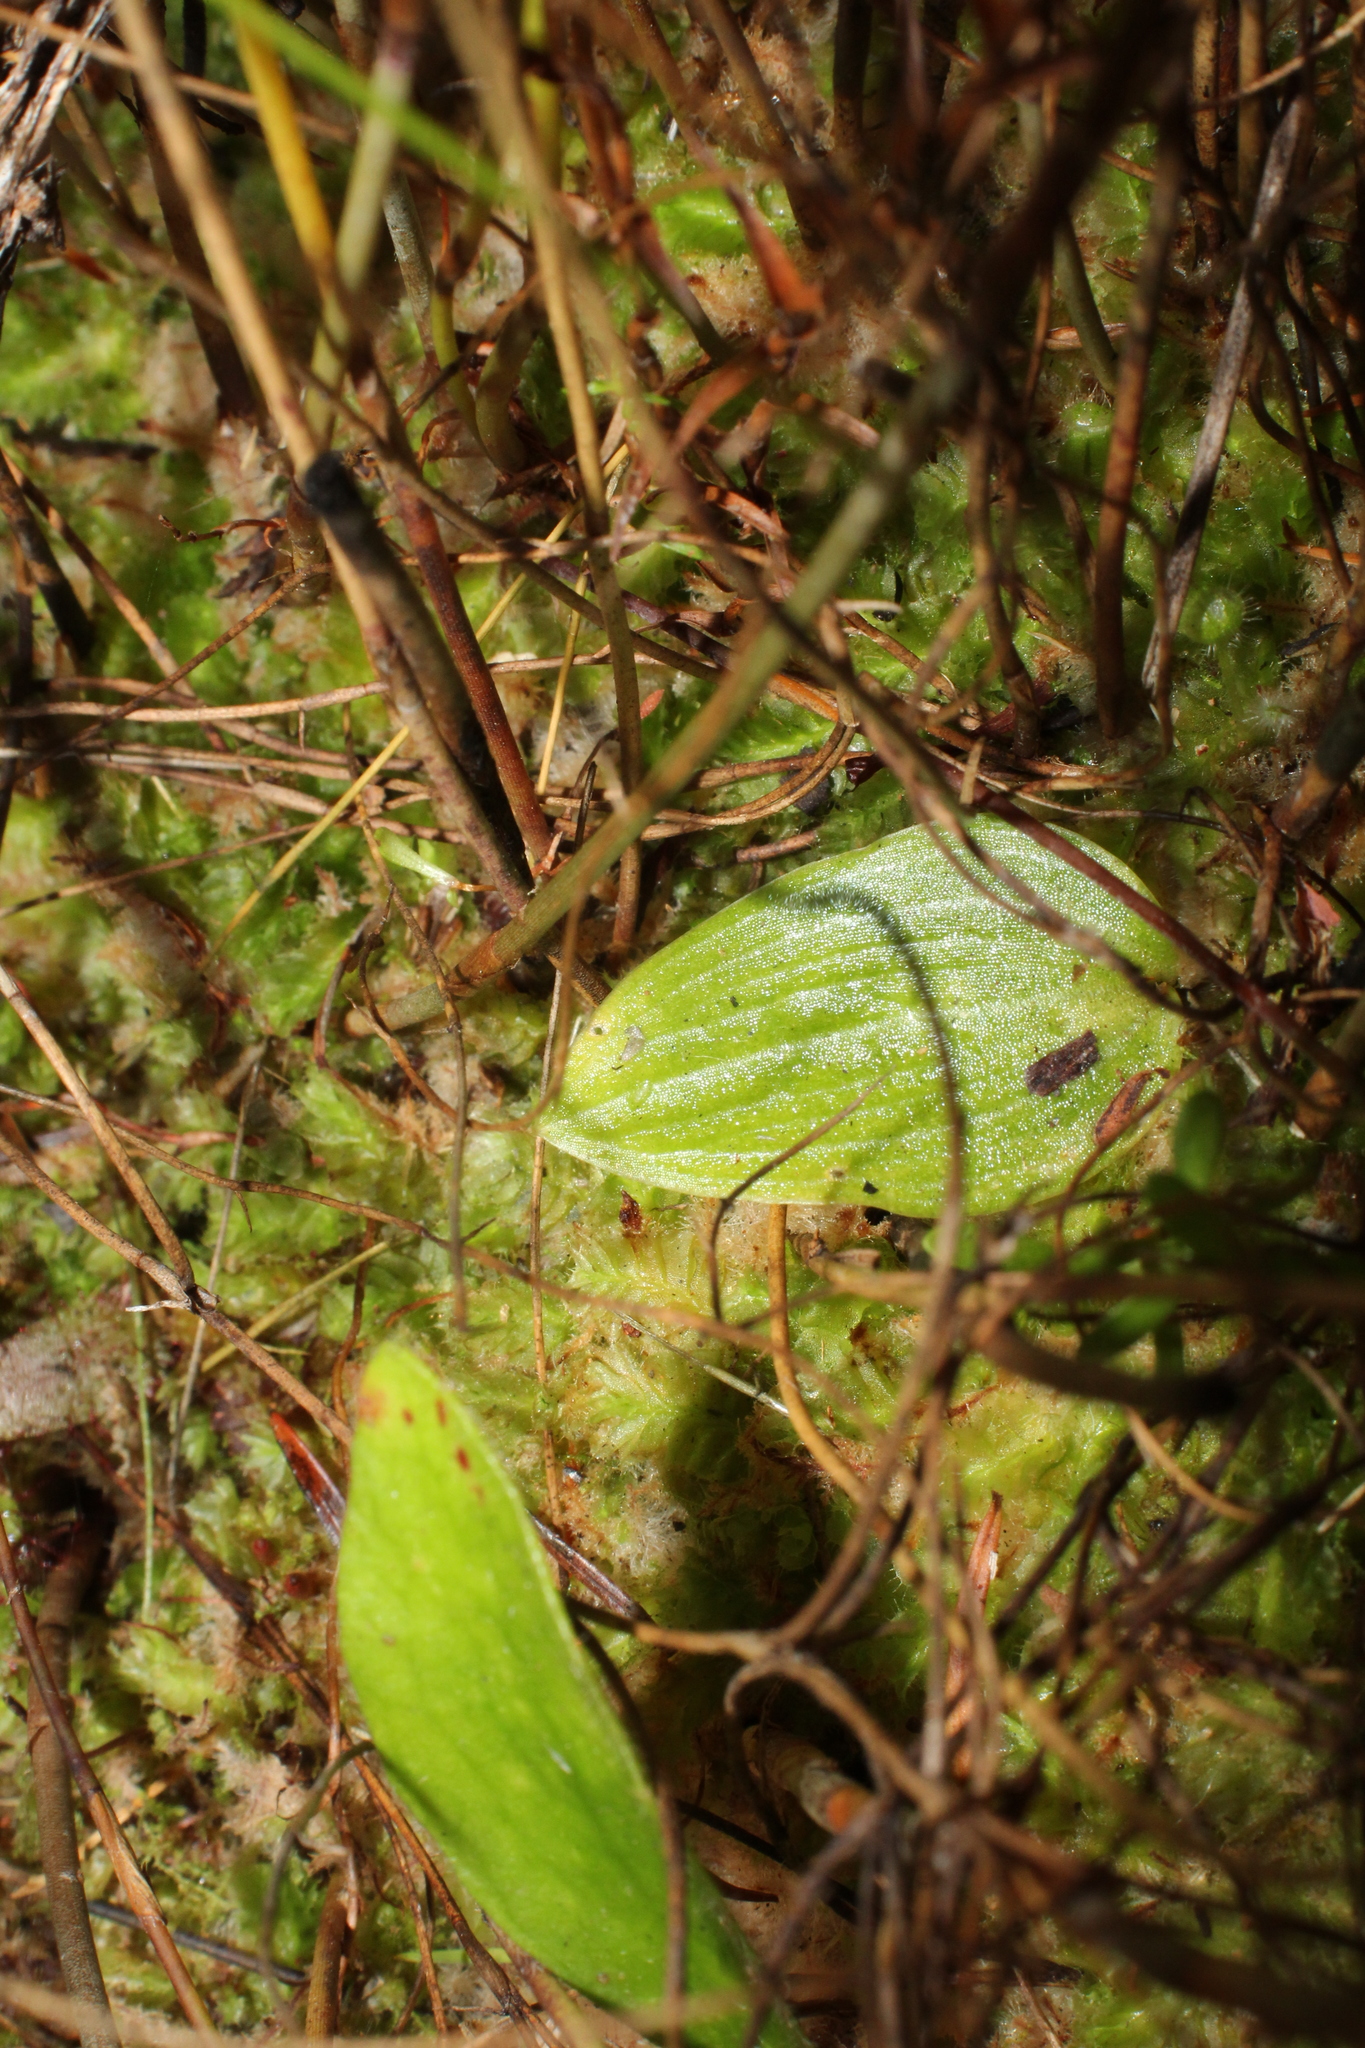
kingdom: Plantae
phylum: Tracheophyta
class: Liliopsida
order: Asparagales
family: Orchidaceae
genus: Eriochilus
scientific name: Eriochilus tenuis
